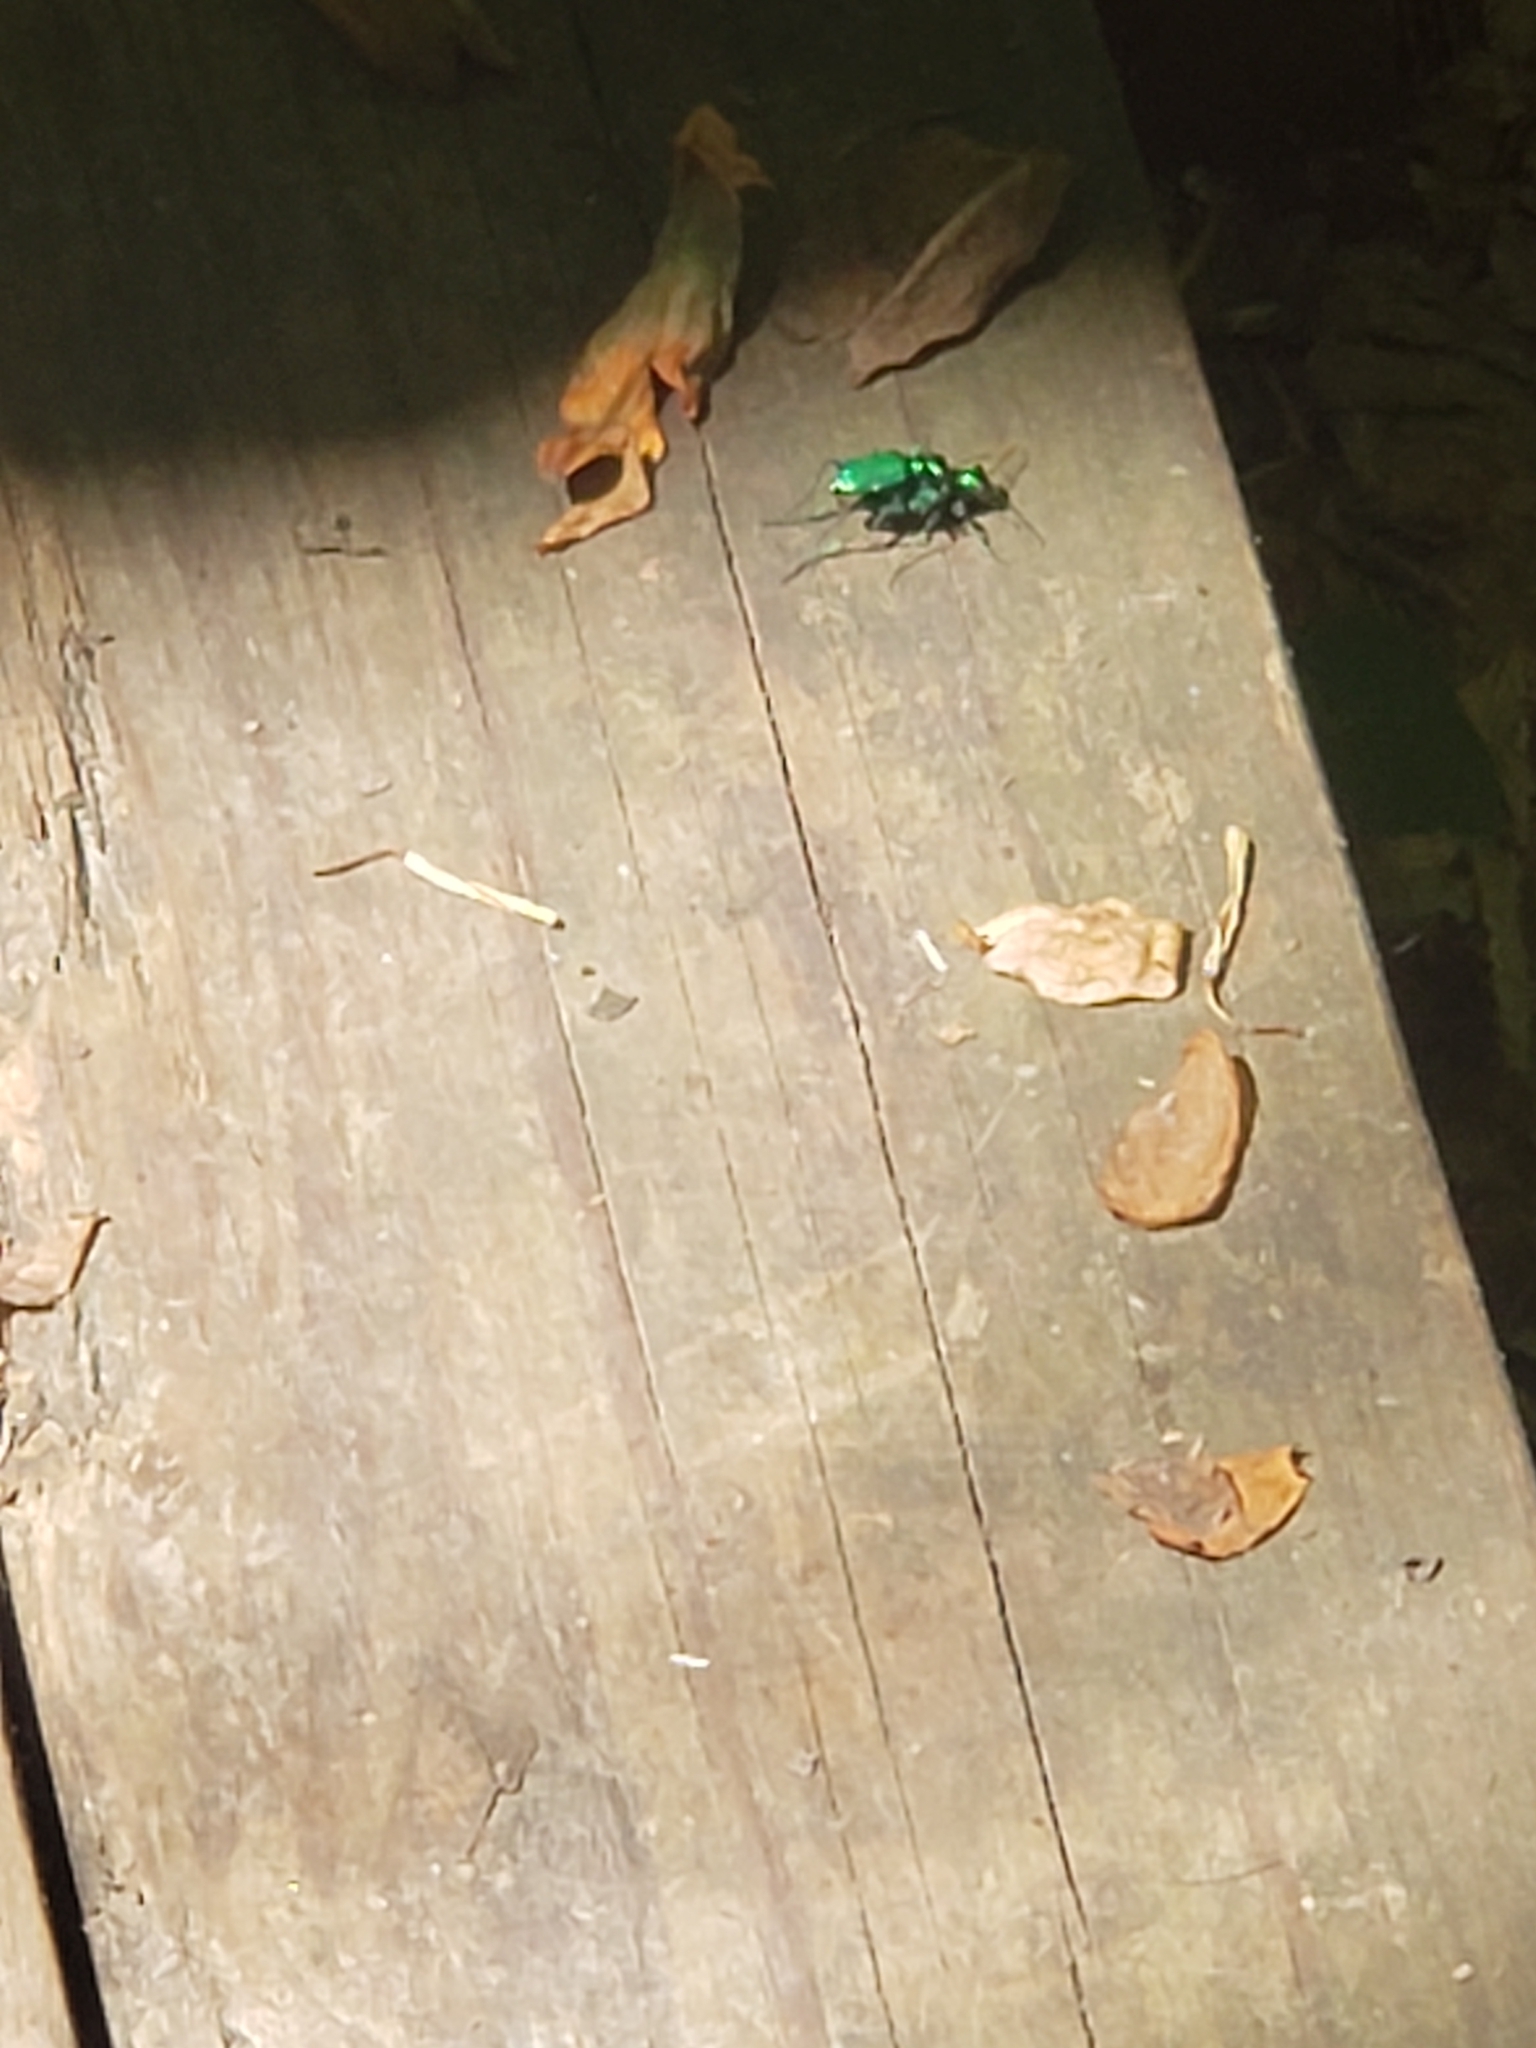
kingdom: Animalia
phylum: Arthropoda
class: Insecta
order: Coleoptera
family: Carabidae
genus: Cicindela
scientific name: Cicindela sexguttata
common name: Six-spotted tiger beetle
